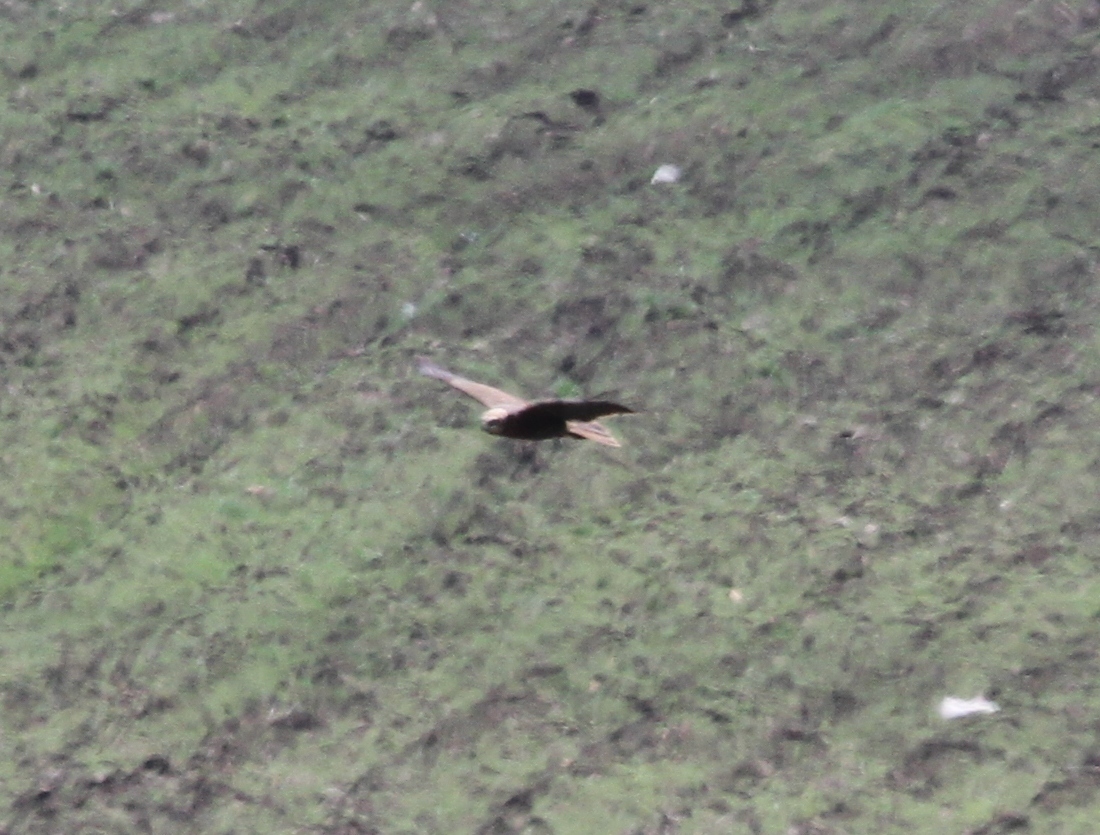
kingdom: Animalia
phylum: Chordata
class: Aves
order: Accipitriformes
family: Accipitridae
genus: Circus
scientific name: Circus aeruginosus
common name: Western marsh harrier
